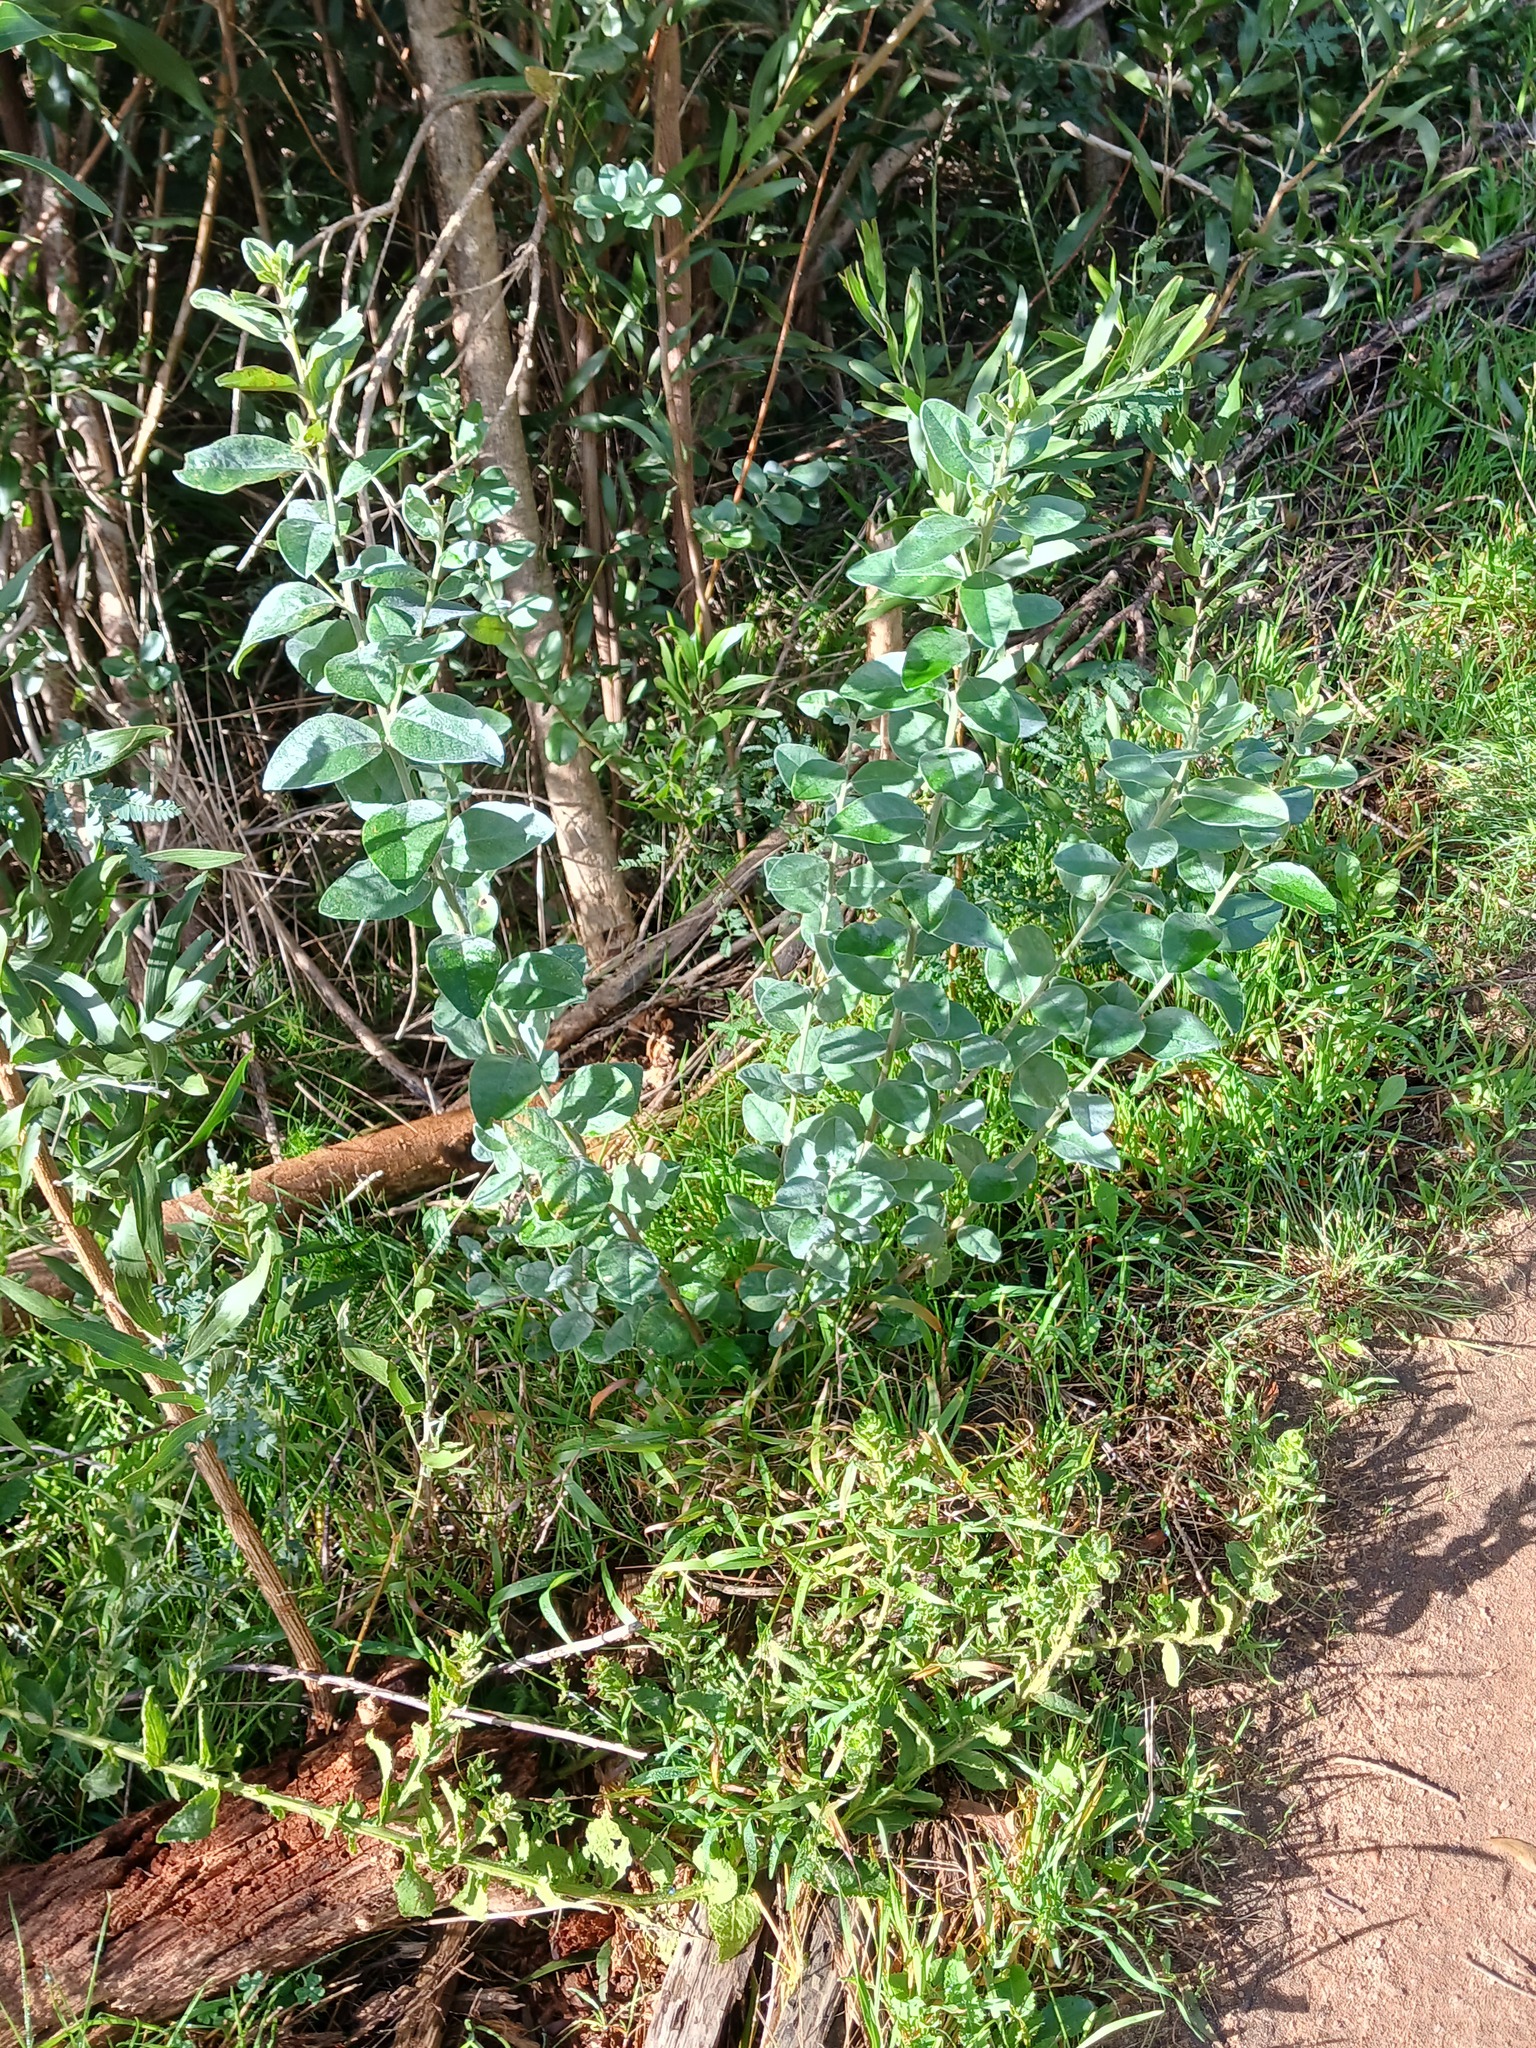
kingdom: Plantae
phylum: Tracheophyta
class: Magnoliopsida
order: Fabales
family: Fabaceae
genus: Podalyria
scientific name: Podalyria calyptrata
